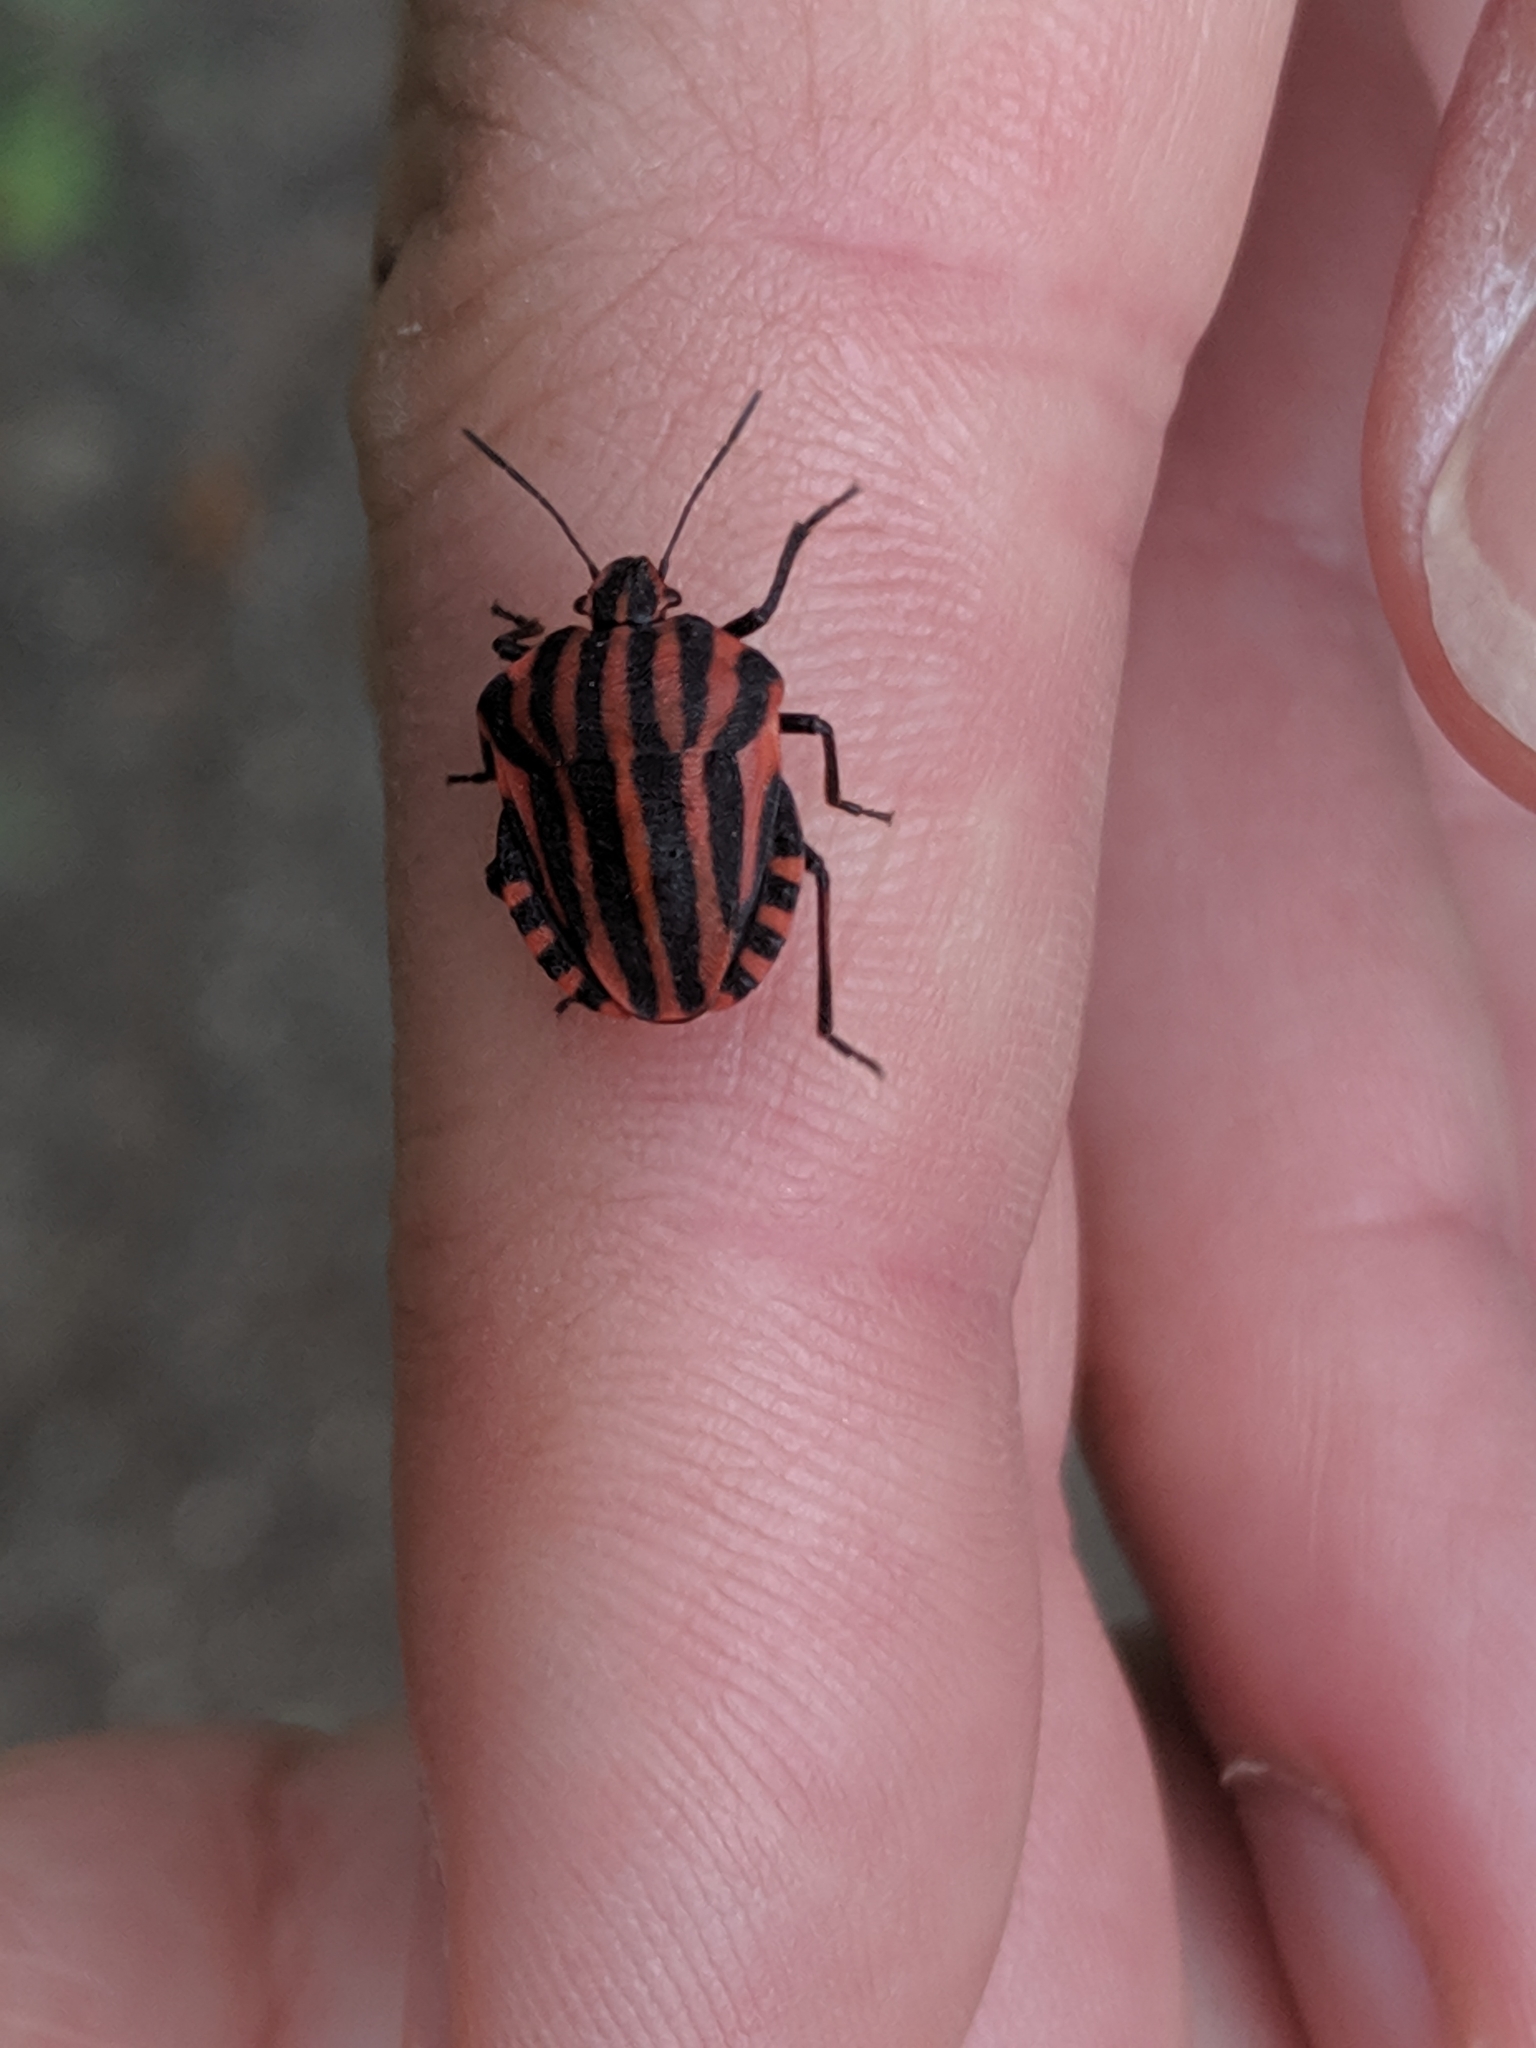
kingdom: Animalia
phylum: Arthropoda
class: Insecta
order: Hemiptera
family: Pentatomidae
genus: Graphosoma
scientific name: Graphosoma italicum
